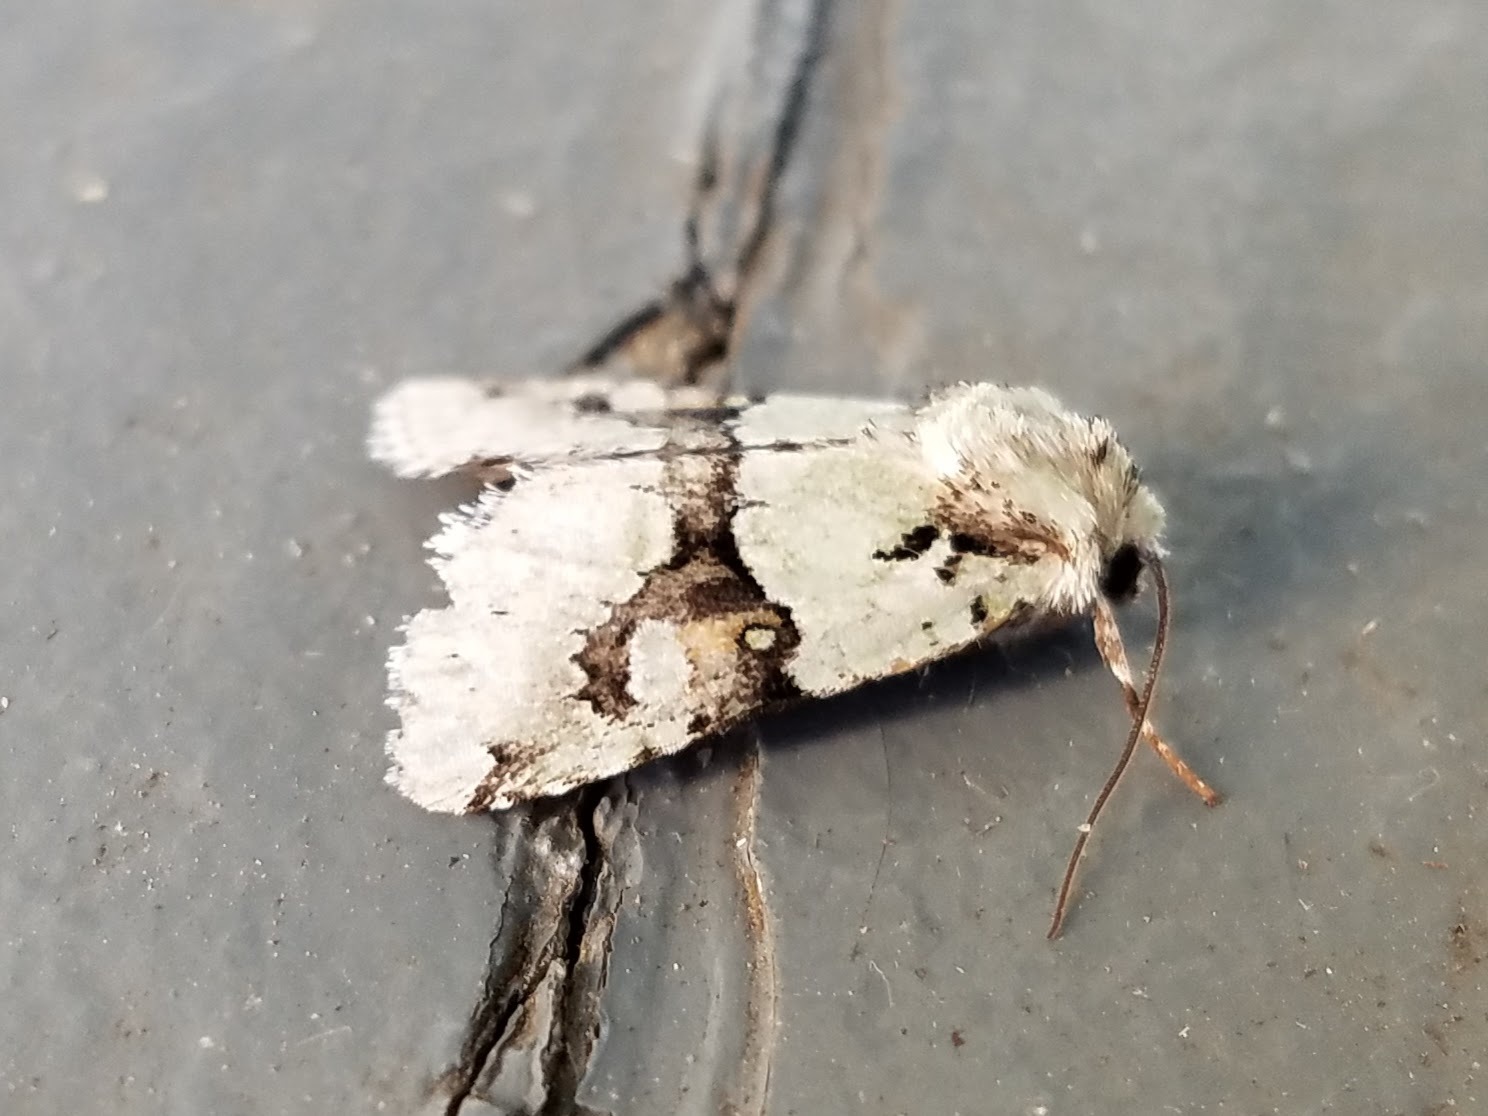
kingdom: Animalia
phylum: Arthropoda
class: Insecta
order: Lepidoptera
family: Noctuidae
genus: Lacinipolia
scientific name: Lacinipolia implicata
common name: Implicit arches
